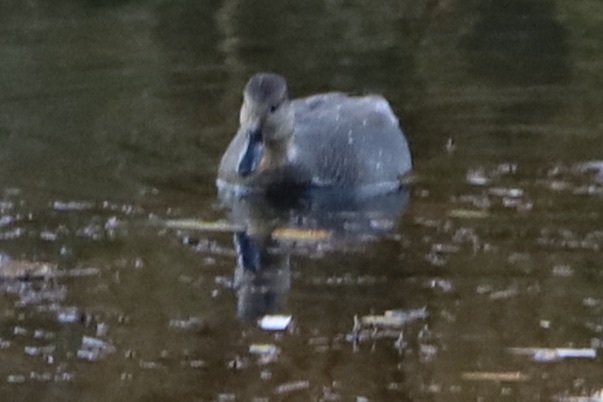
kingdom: Animalia
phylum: Chordata
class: Aves
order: Anseriformes
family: Anatidae
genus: Mareca
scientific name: Mareca strepera
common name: Gadwall
